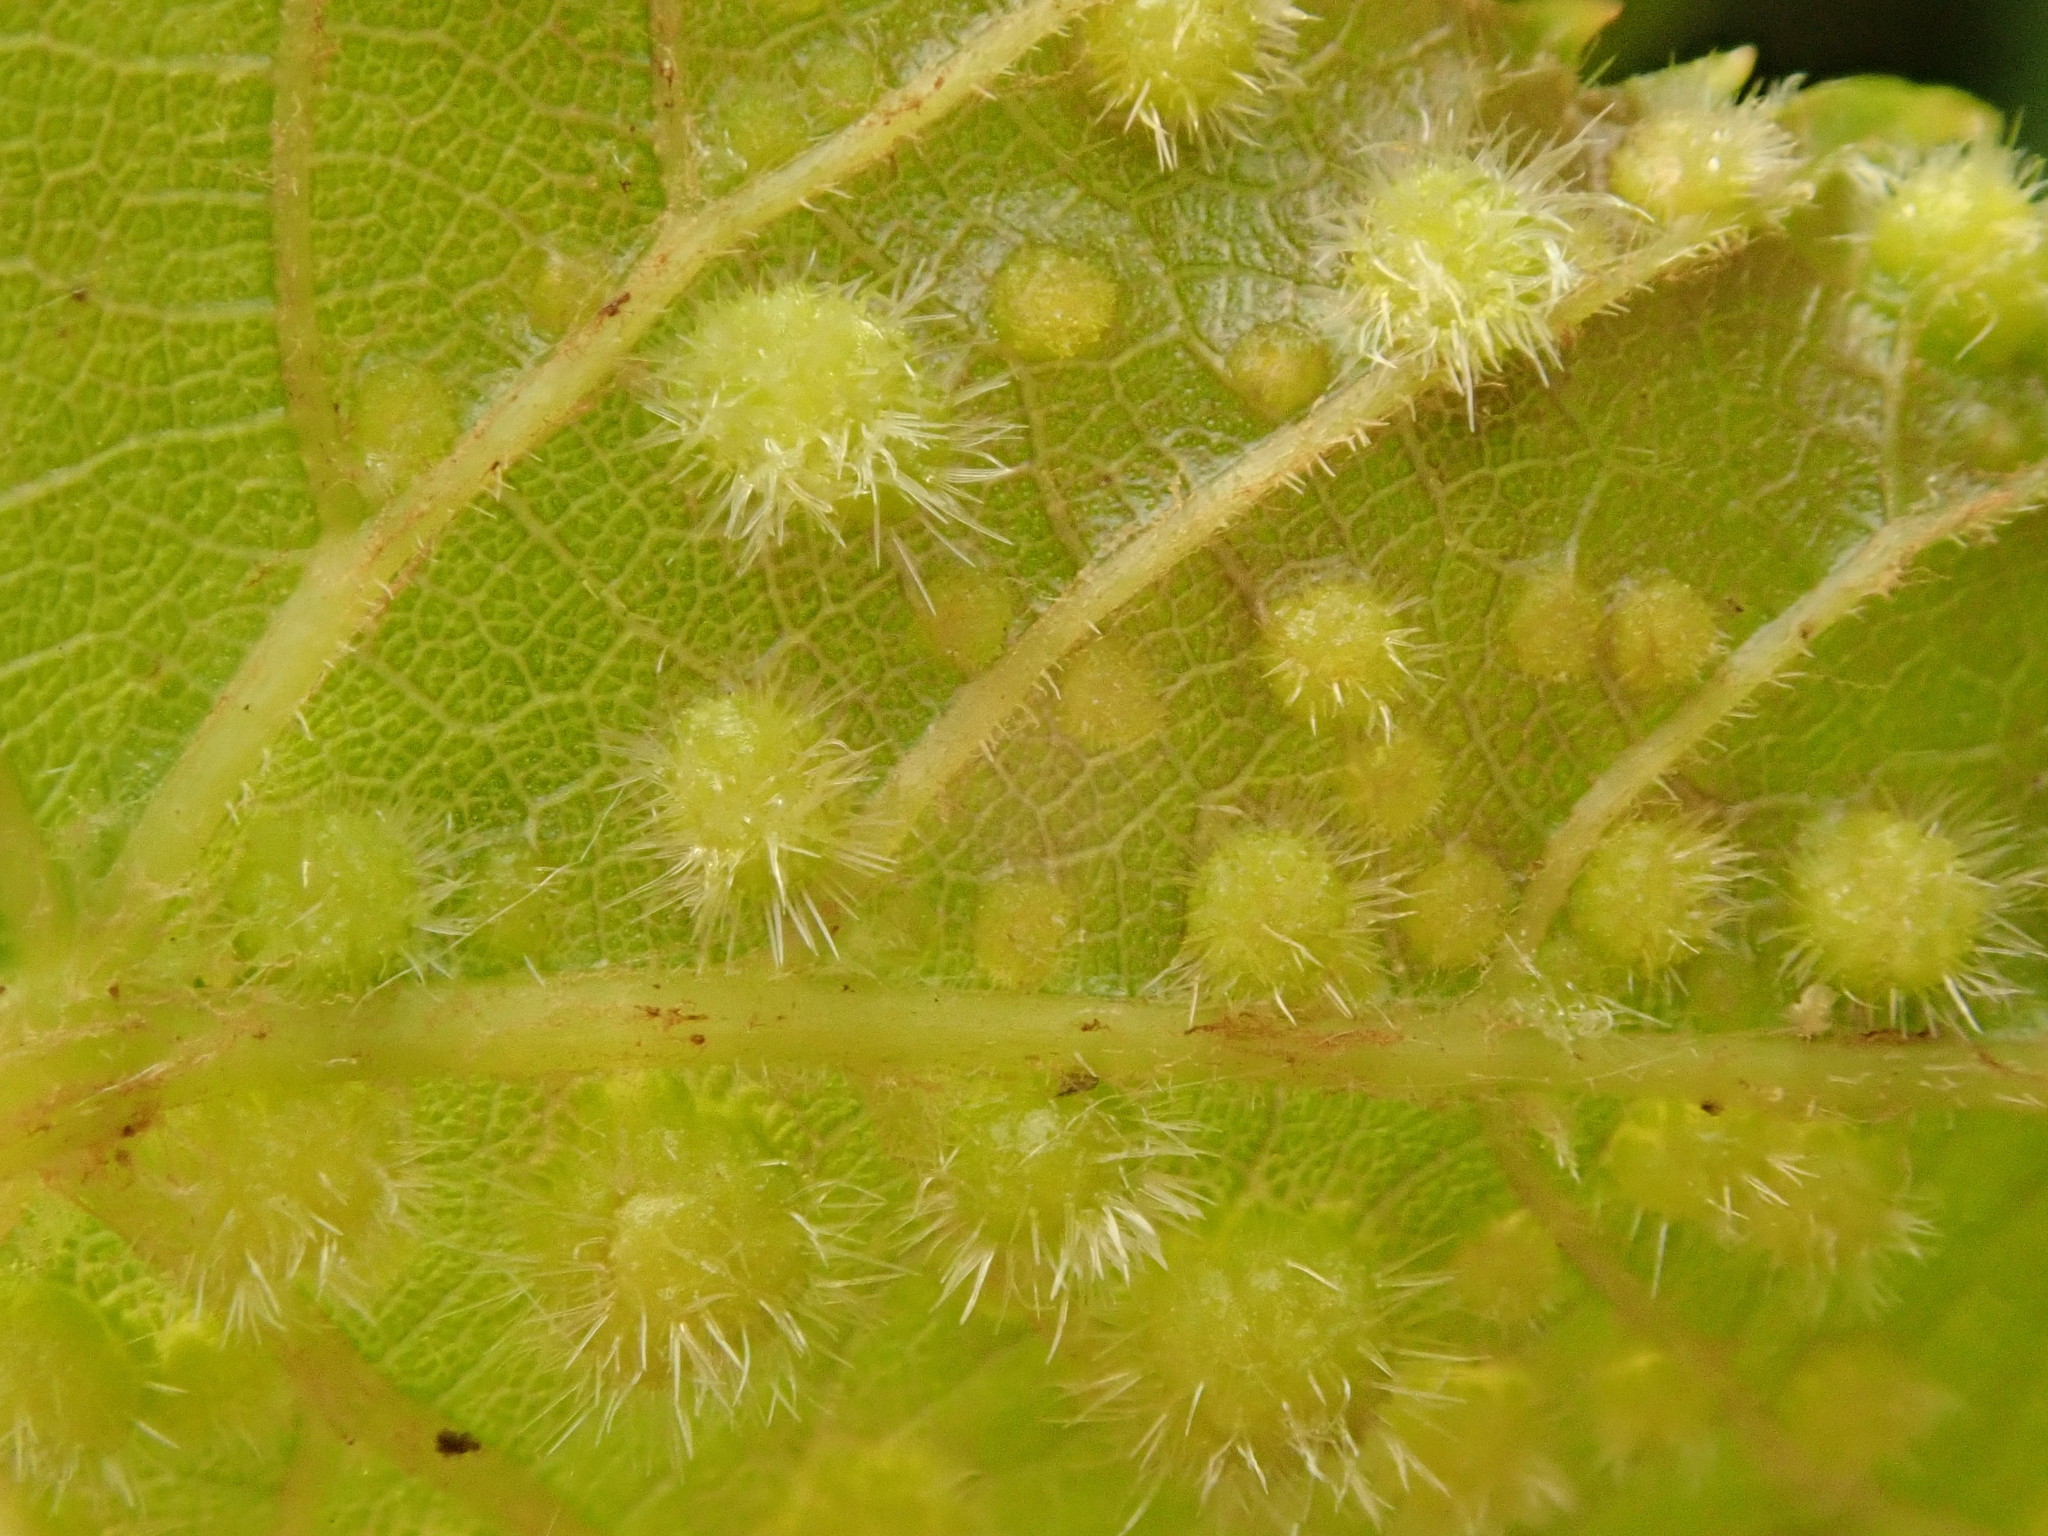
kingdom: Animalia
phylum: Arthropoda
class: Insecta
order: Hemiptera
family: Phylloxeridae
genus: Daktulosphaira
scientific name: Daktulosphaira vitifoliae
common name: Grape phylloxera
